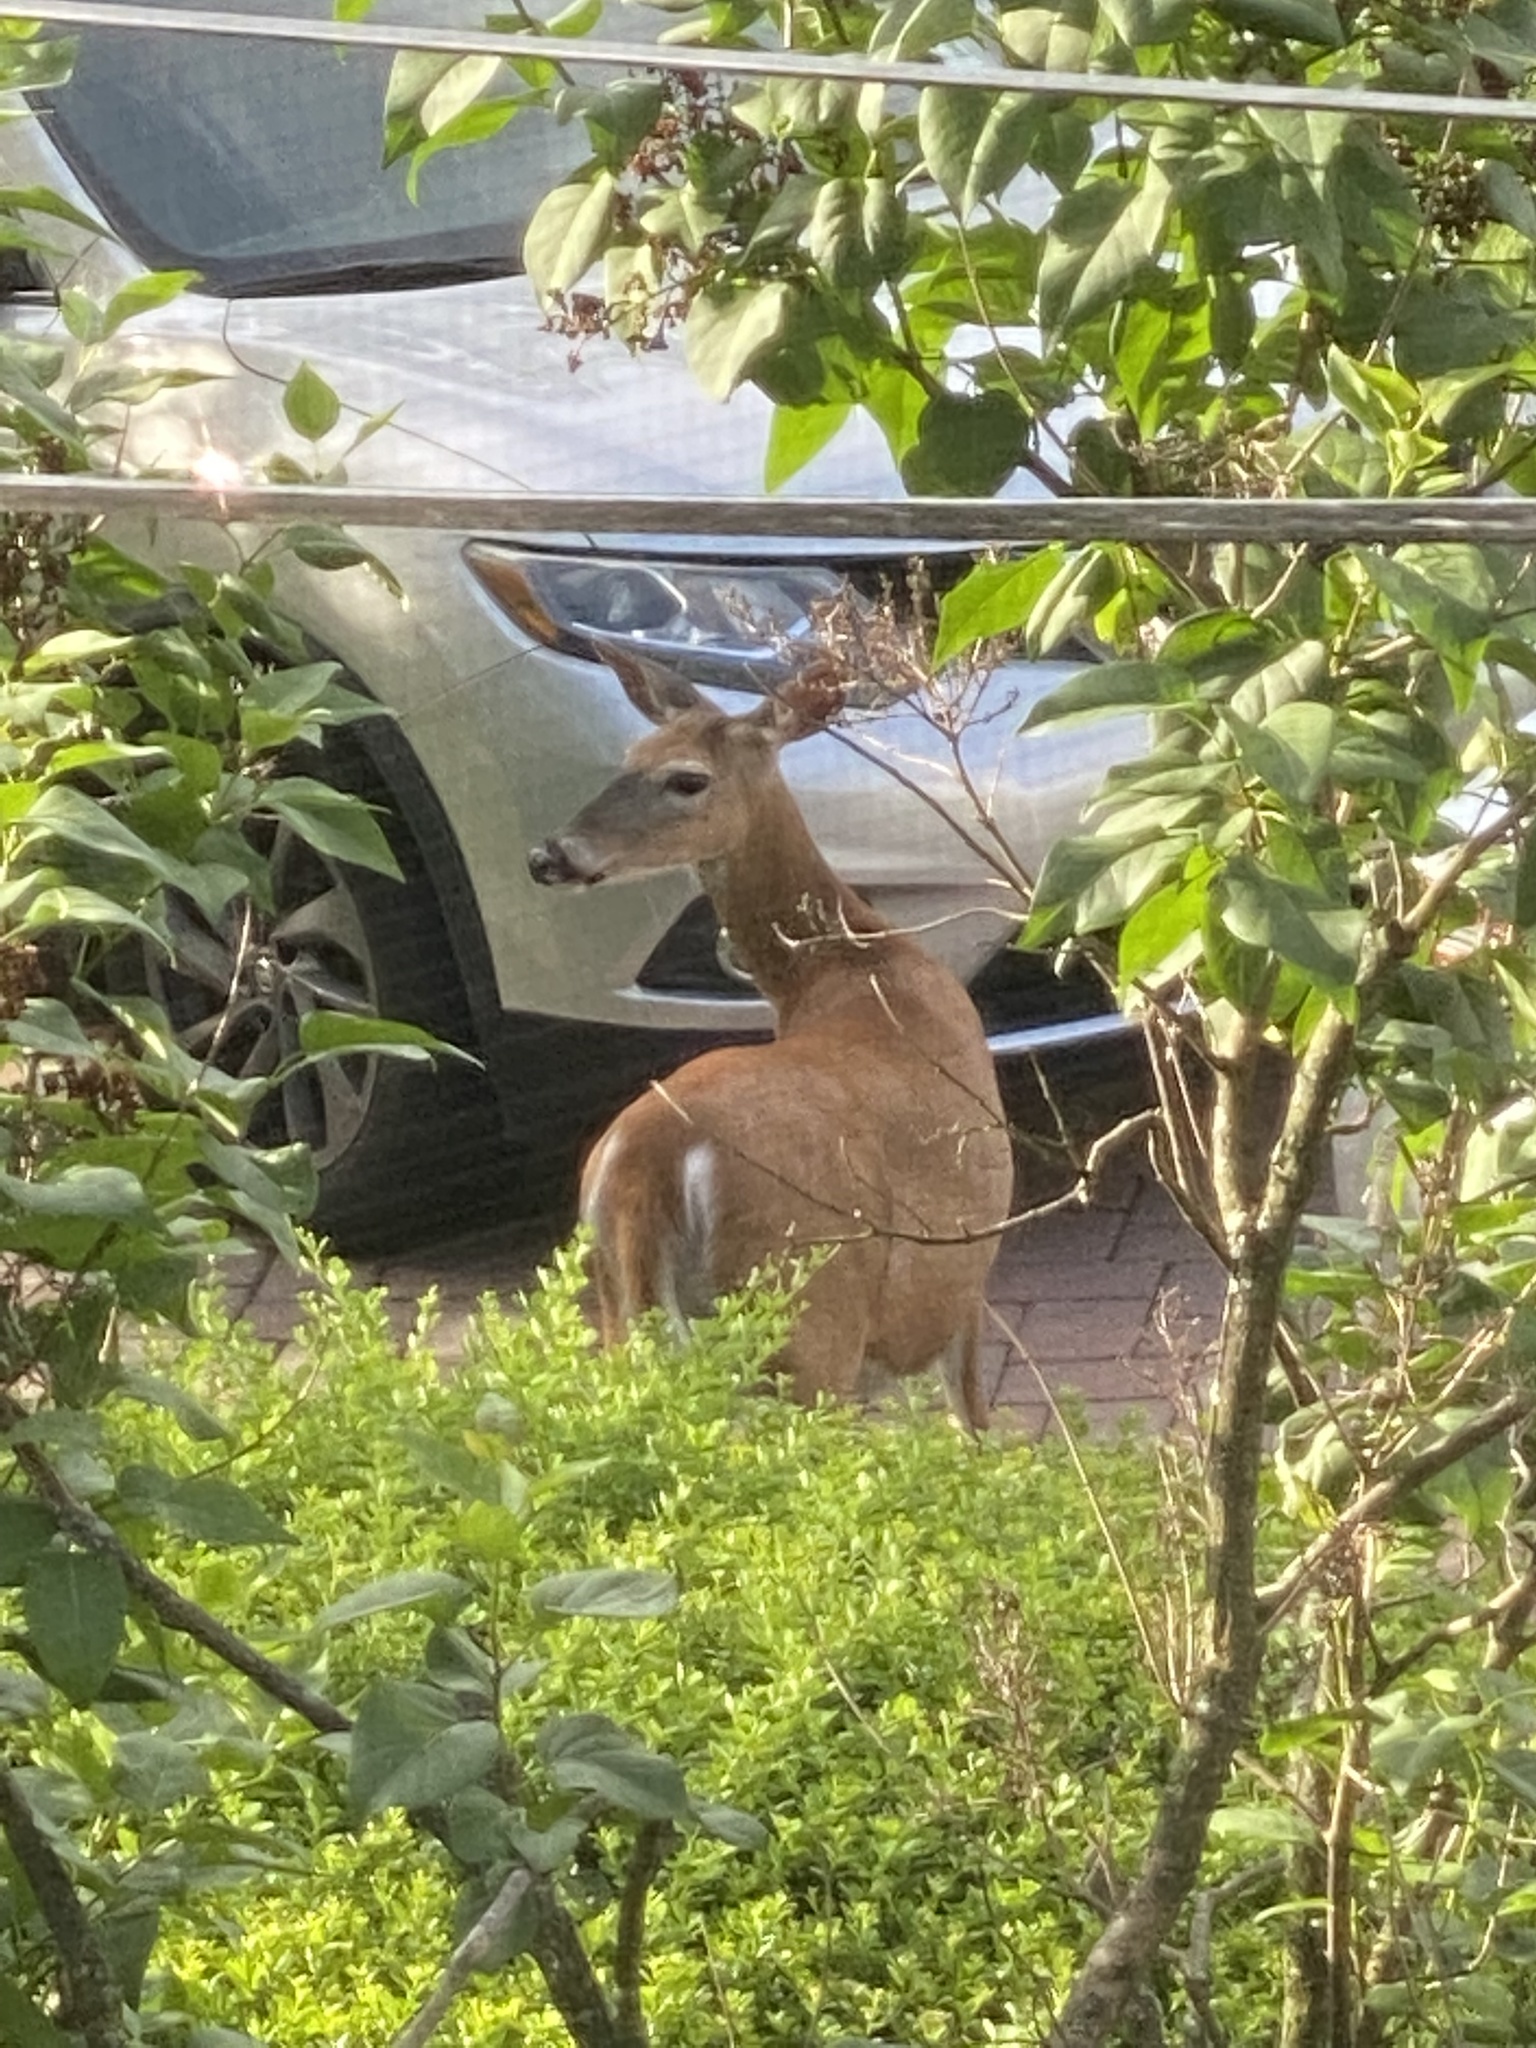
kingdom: Animalia
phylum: Chordata
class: Mammalia
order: Artiodactyla
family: Cervidae
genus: Odocoileus
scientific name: Odocoileus virginianus
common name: White-tailed deer
